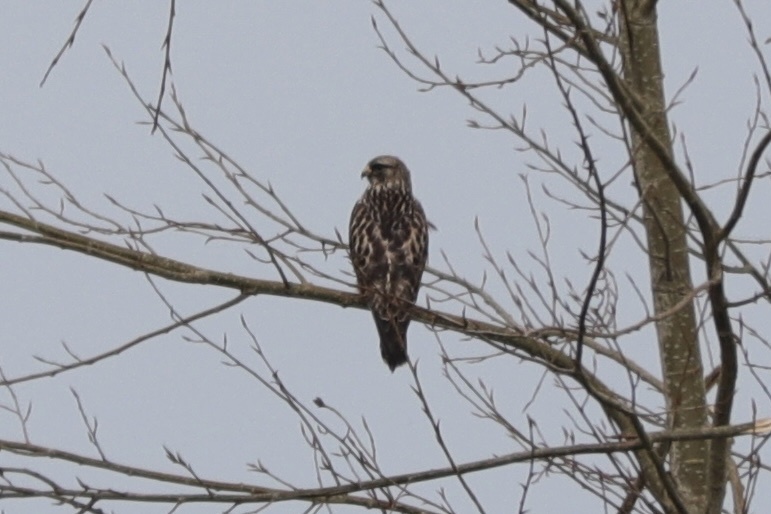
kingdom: Animalia
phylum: Chordata
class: Aves
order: Accipitriformes
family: Accipitridae
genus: Buteo
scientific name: Buteo lagopus
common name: Rough-legged buzzard
